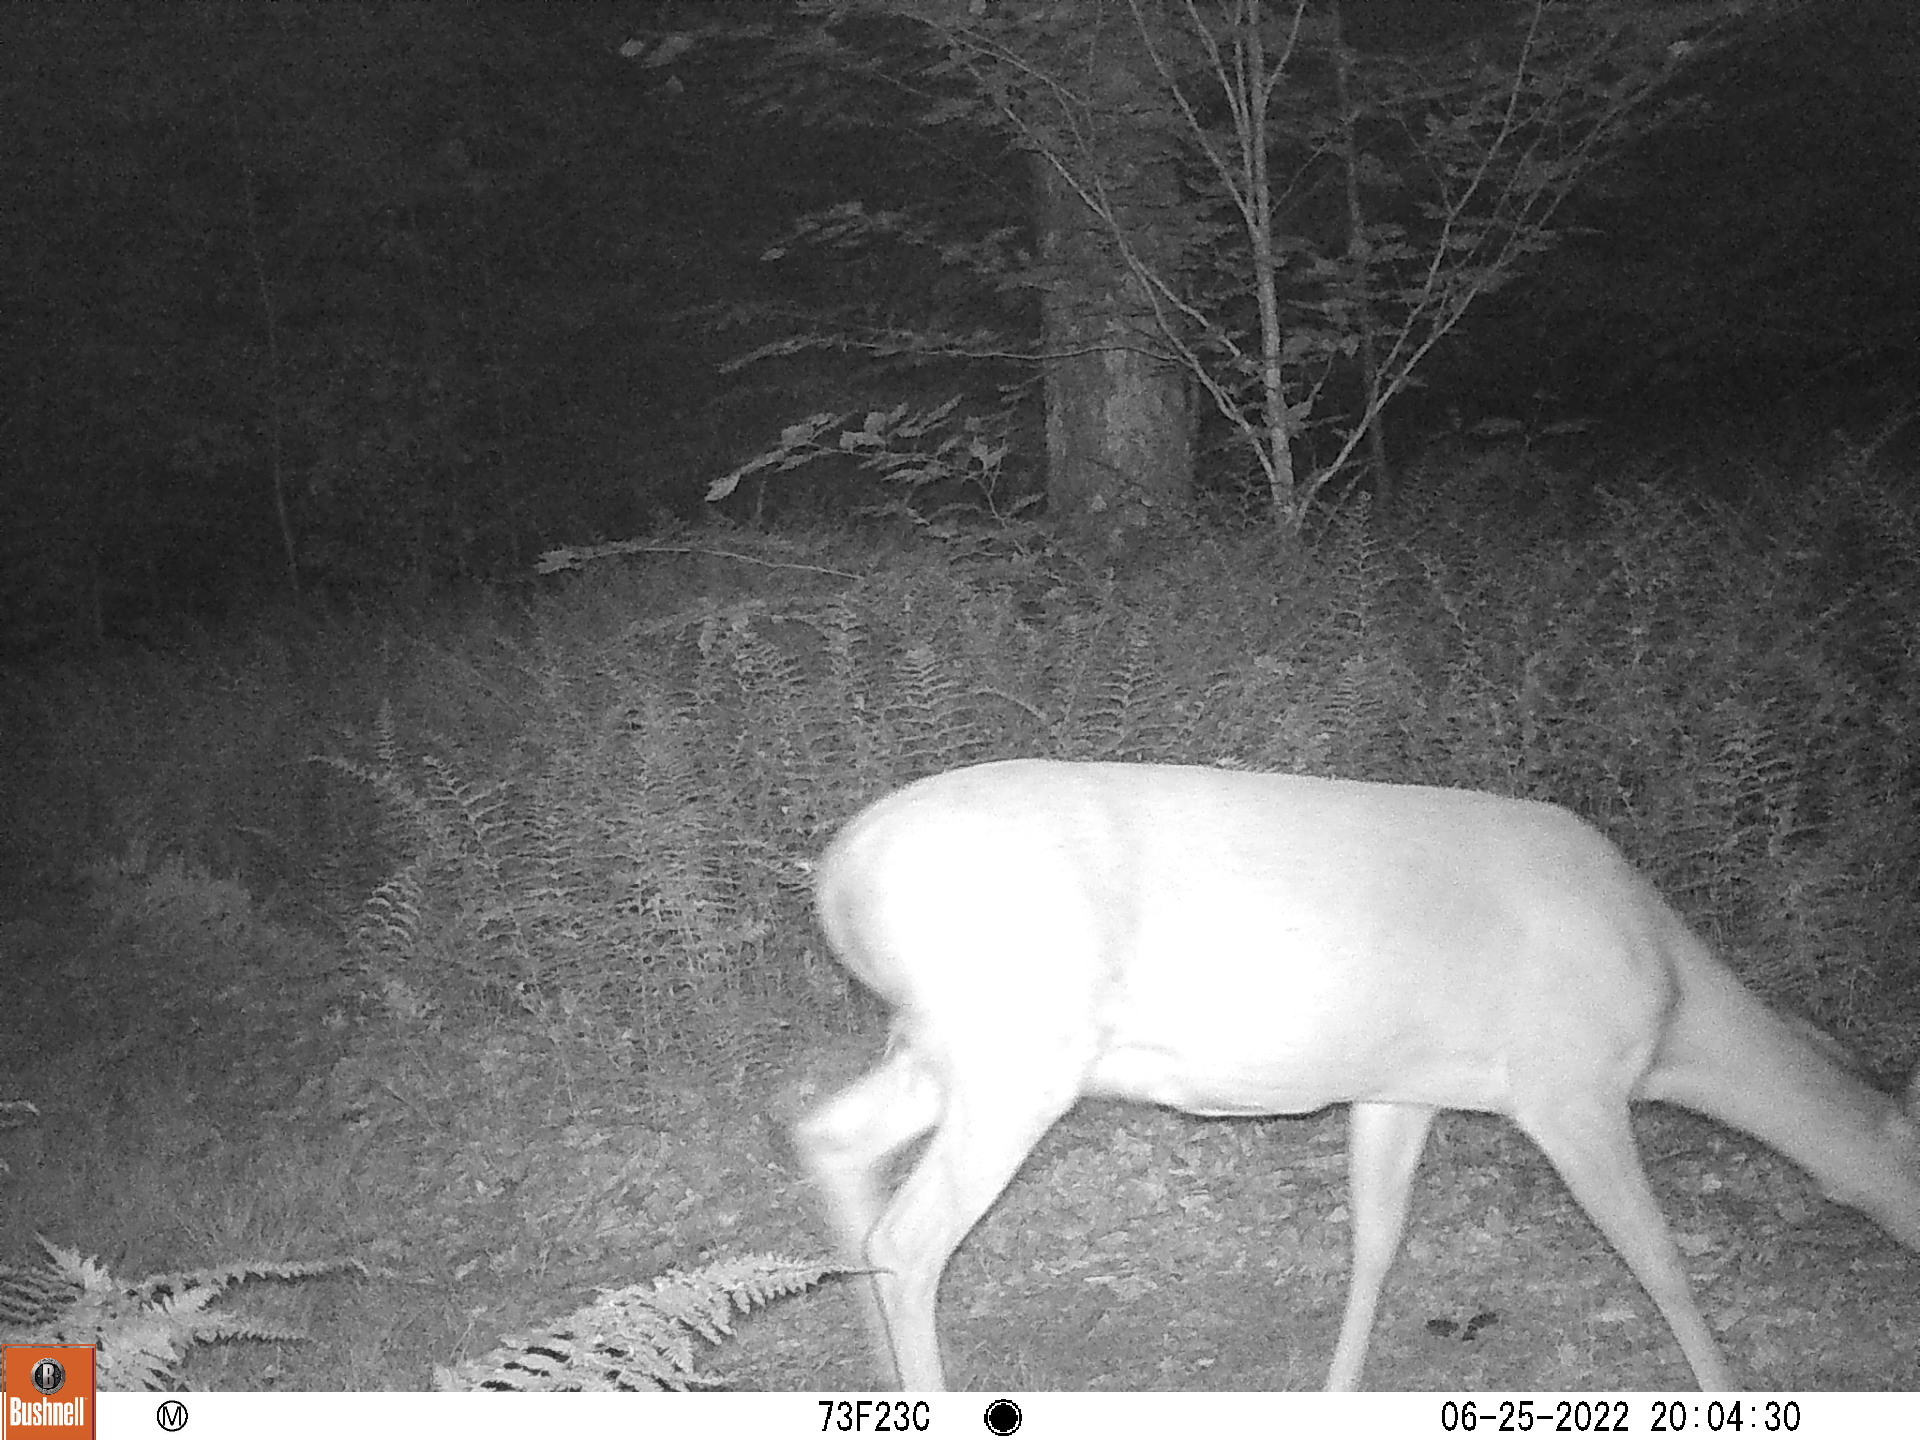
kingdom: Animalia
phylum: Chordata
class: Mammalia
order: Artiodactyla
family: Cervidae
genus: Odocoileus
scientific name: Odocoileus virginianus
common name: White-tailed deer
